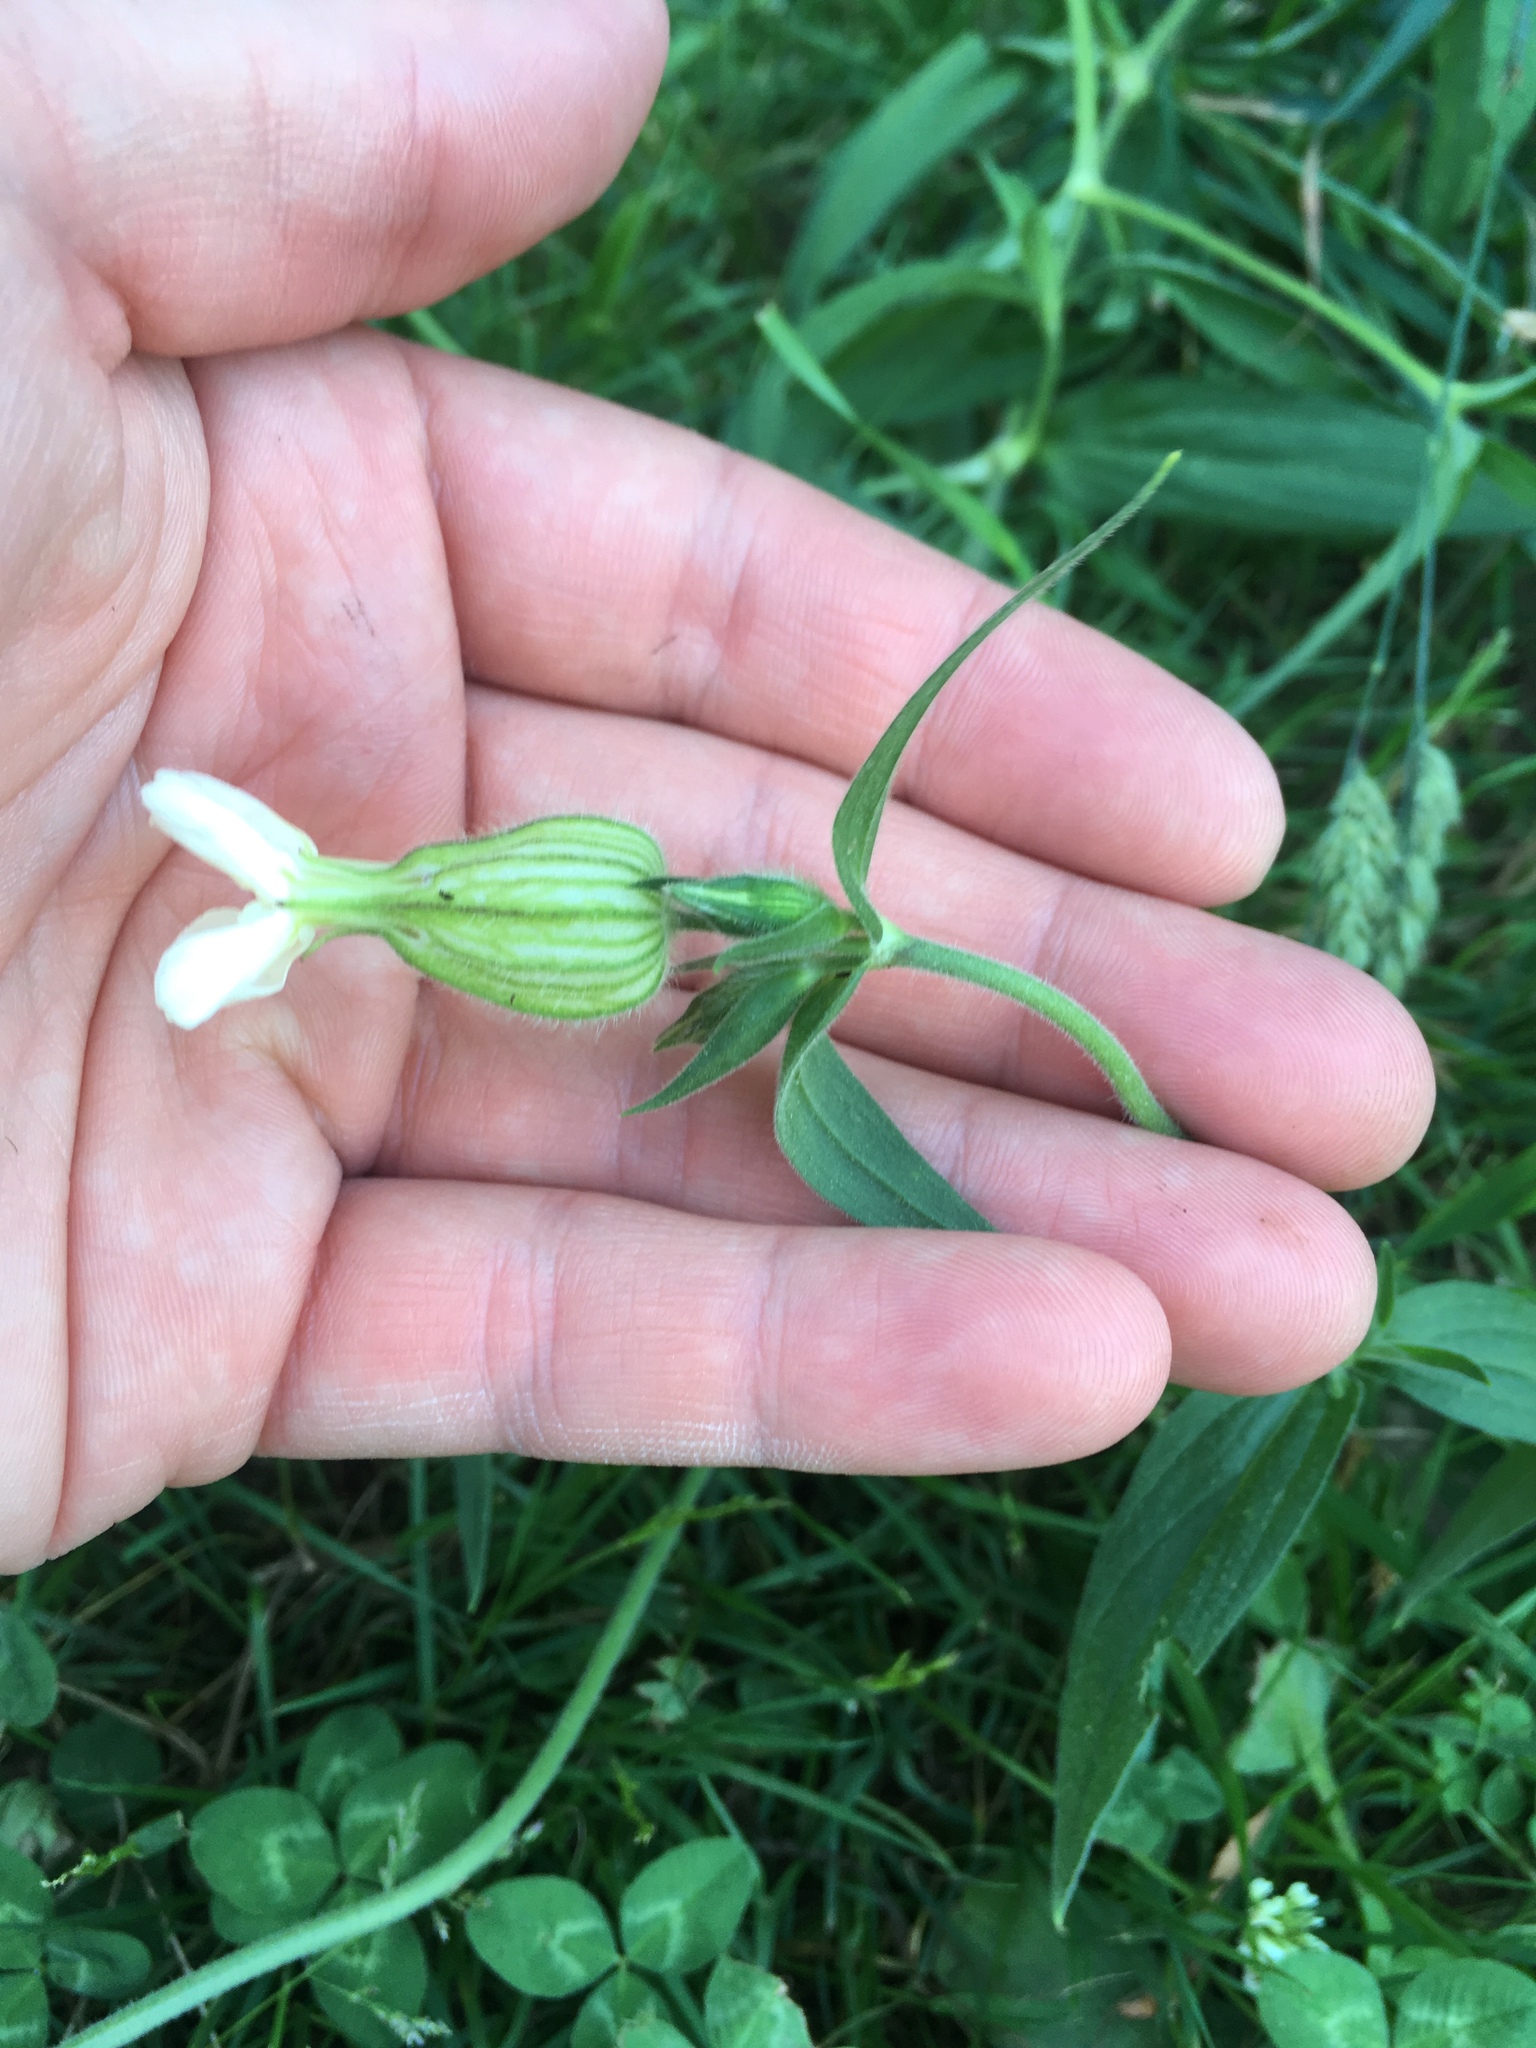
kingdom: Plantae
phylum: Tracheophyta
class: Magnoliopsida
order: Caryophyllales
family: Caryophyllaceae
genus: Silene
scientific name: Silene latifolia
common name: White campion
